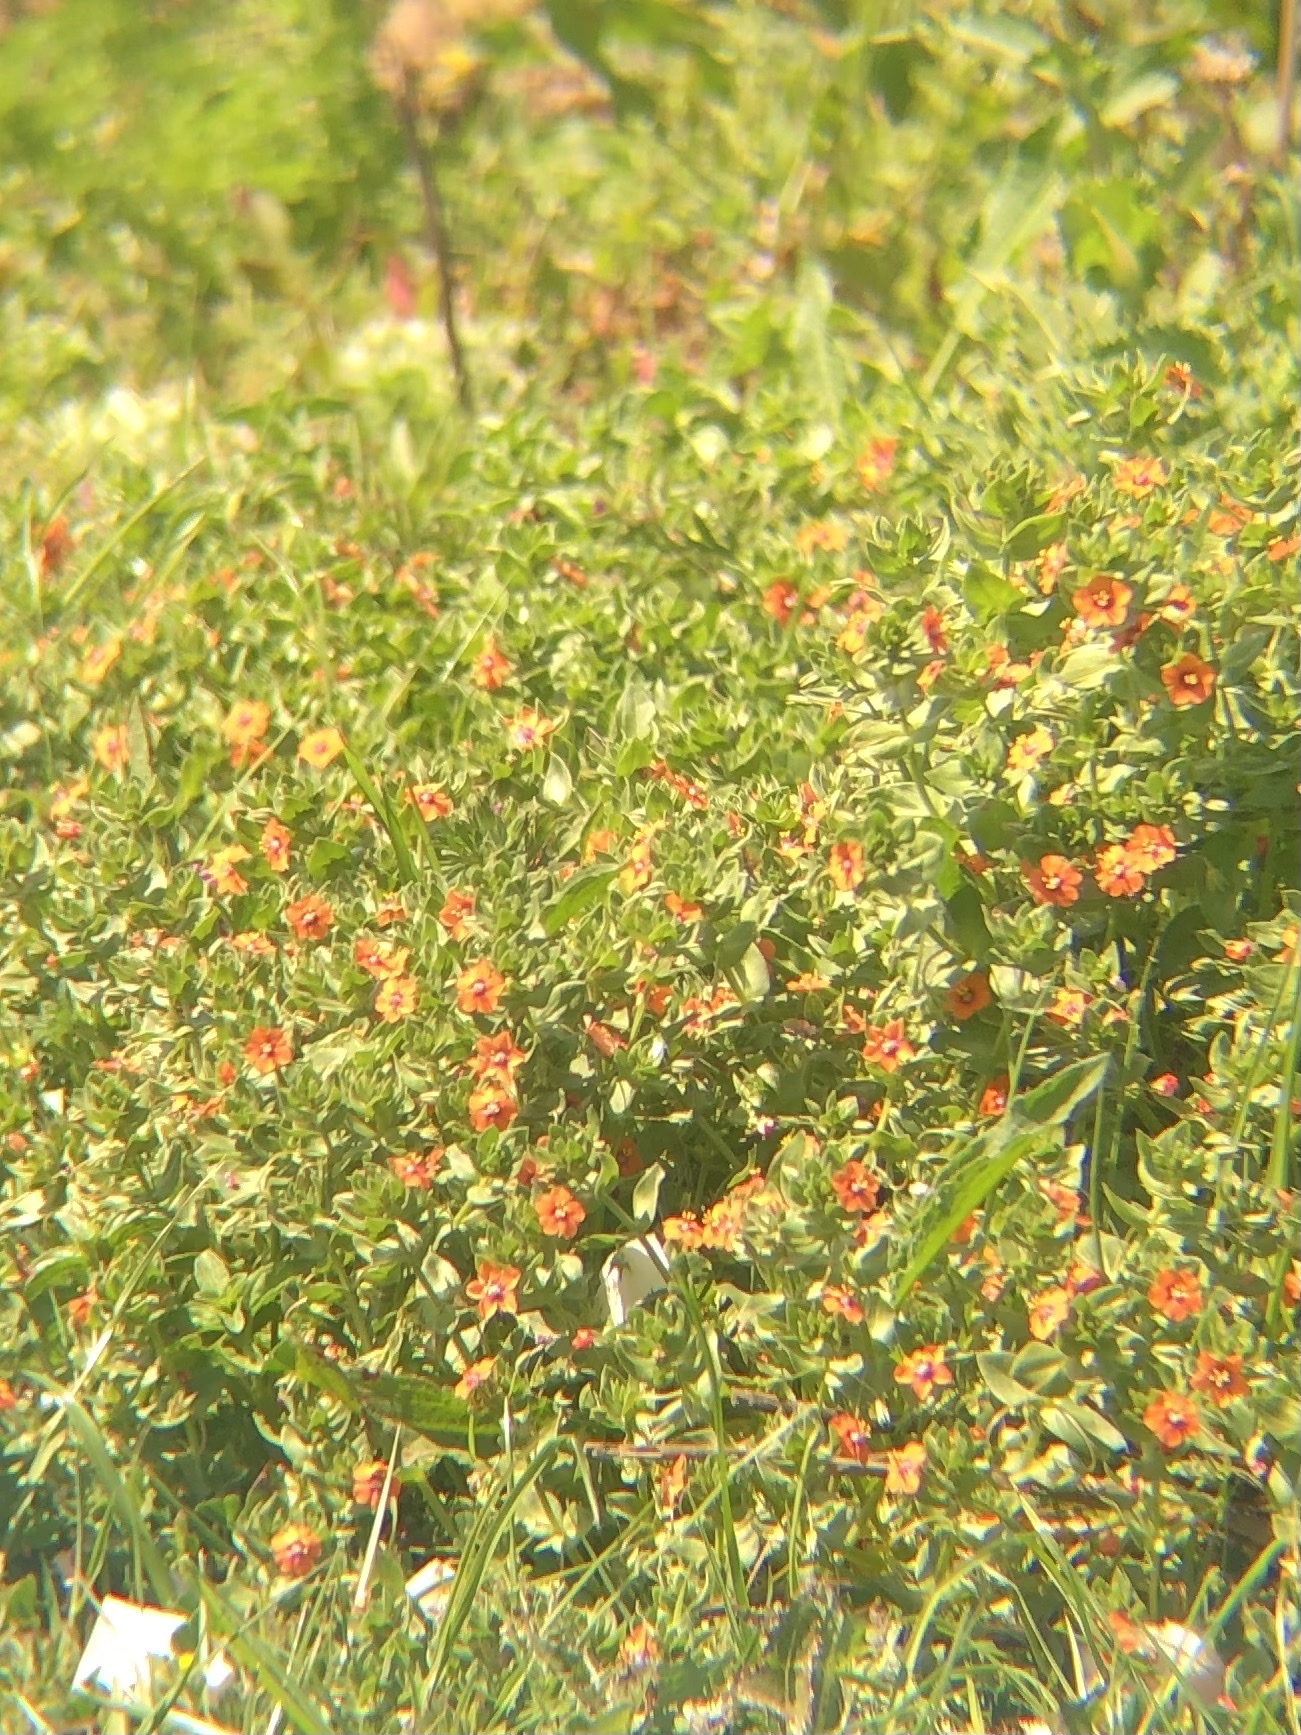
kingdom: Plantae
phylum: Tracheophyta
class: Magnoliopsida
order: Ericales
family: Primulaceae
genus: Lysimachia
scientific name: Lysimachia arvensis
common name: Scarlet pimpernel
